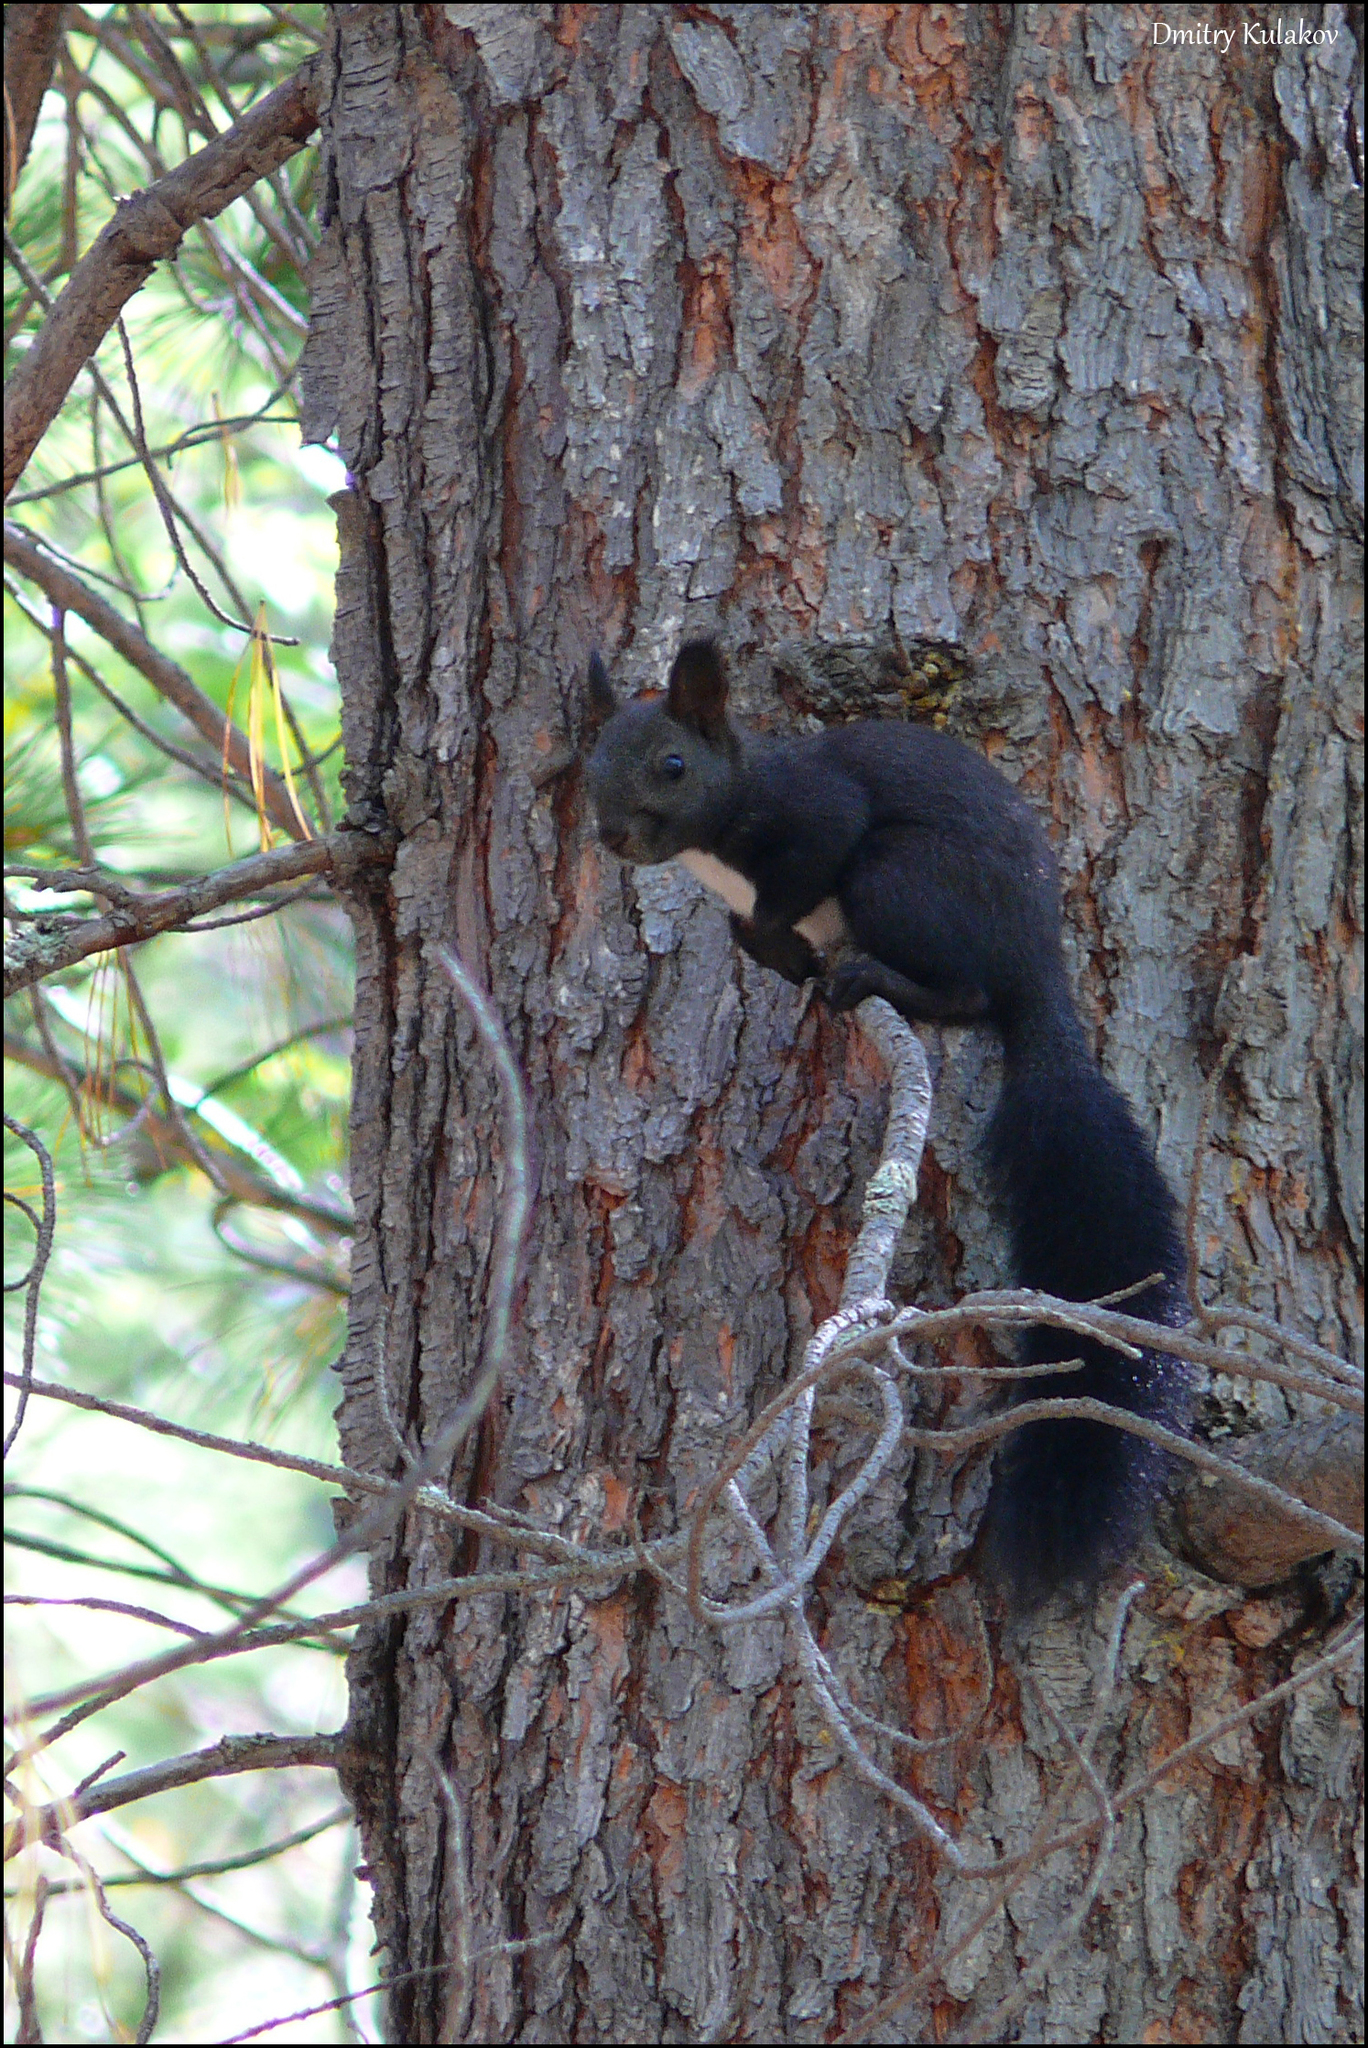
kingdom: Animalia
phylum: Chordata
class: Mammalia
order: Rodentia
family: Sciuridae
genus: Sciurus
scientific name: Sciurus vulgaris
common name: Eurasian red squirrel
